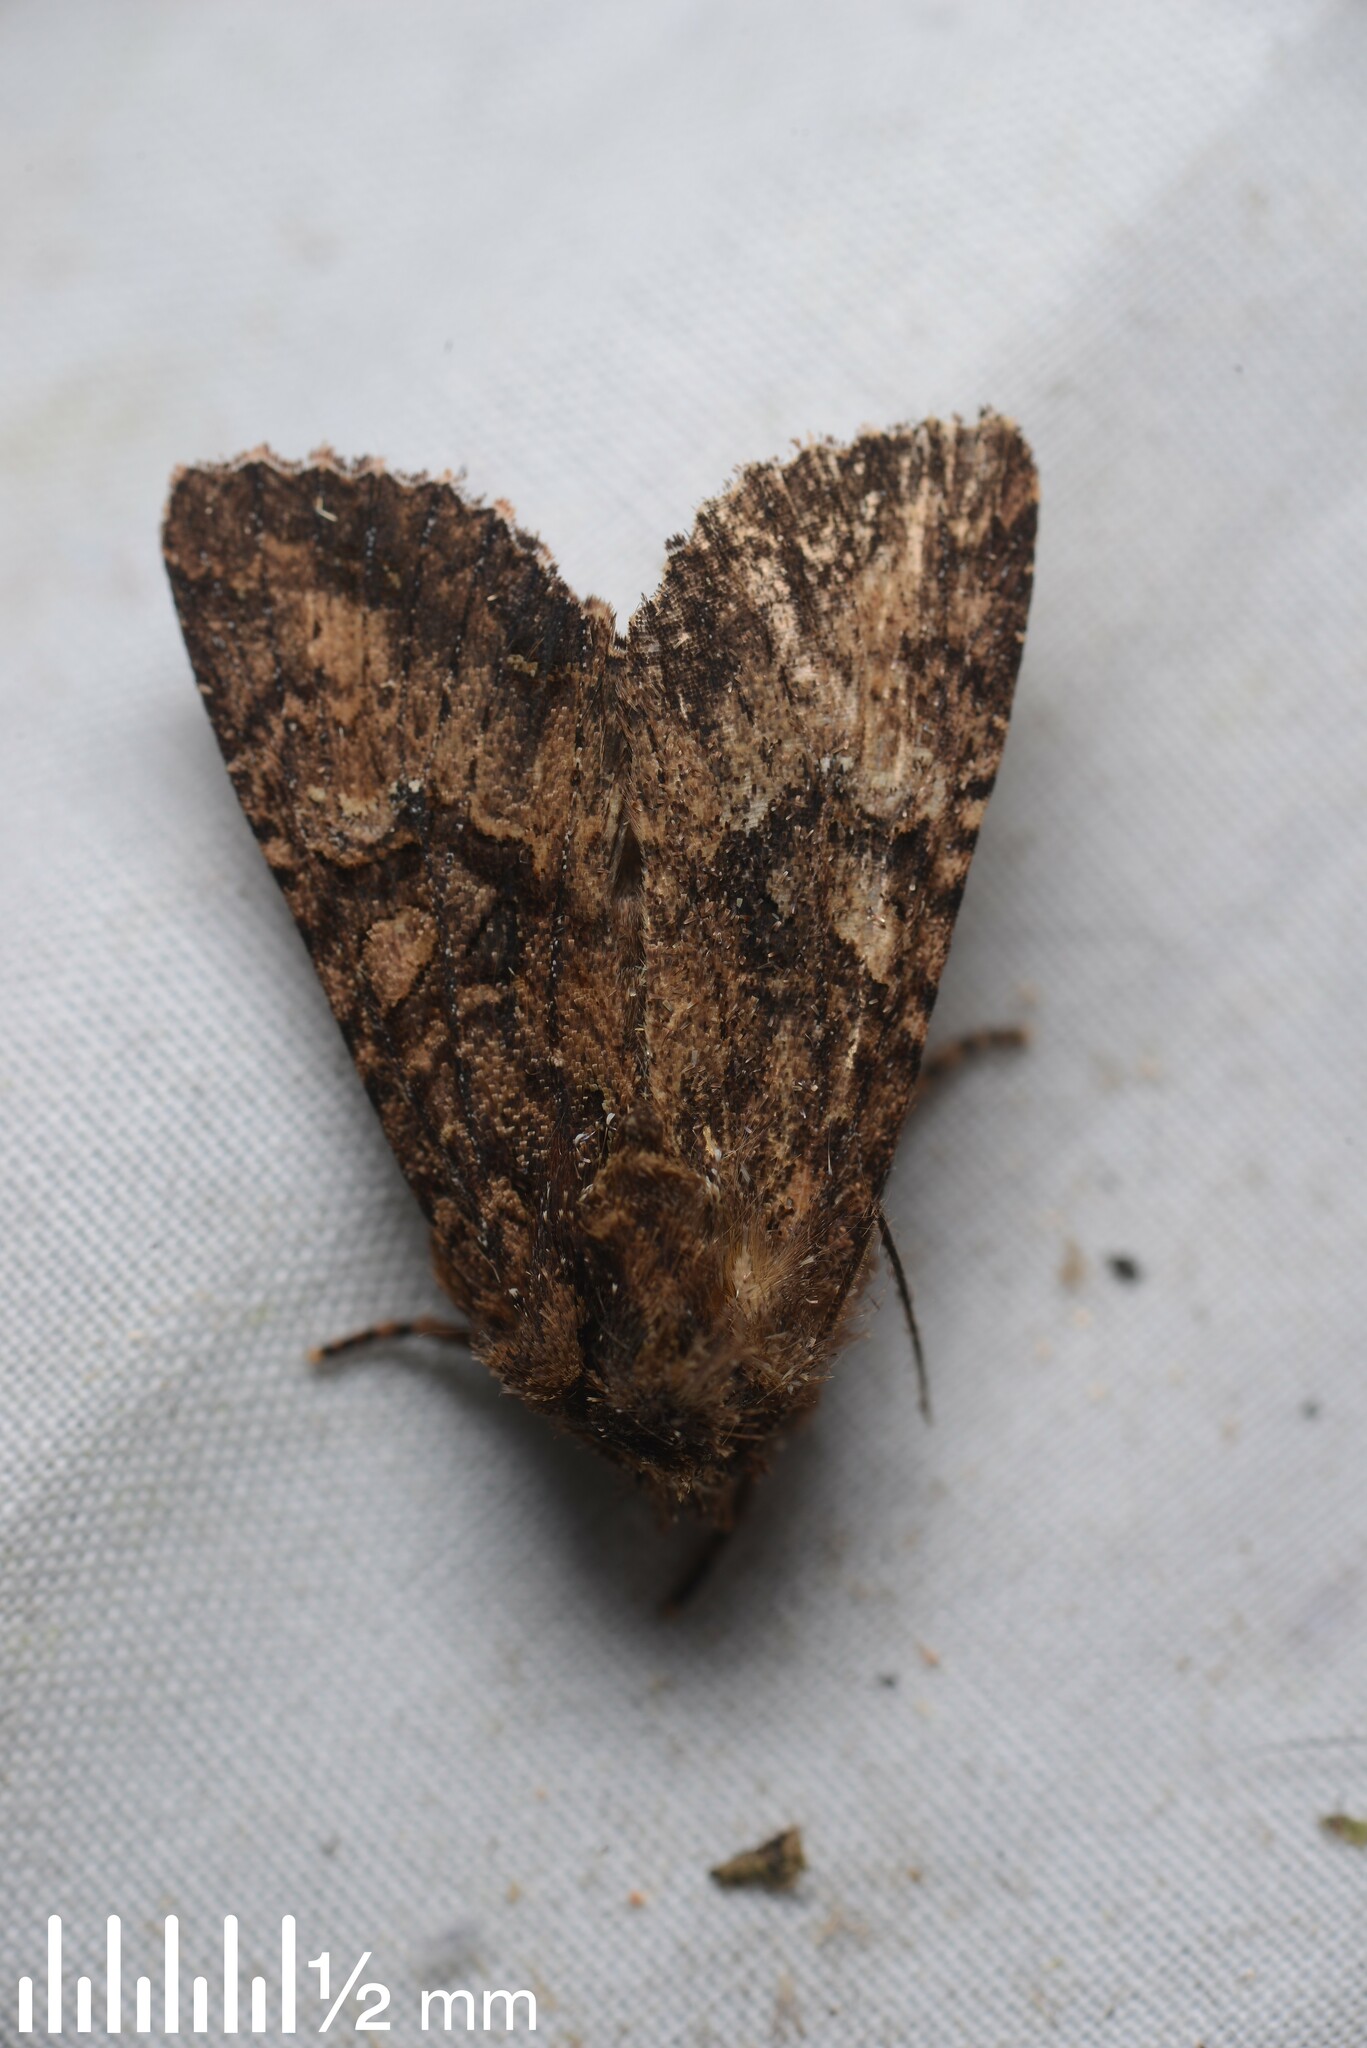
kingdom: Animalia
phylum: Arthropoda
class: Insecta
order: Lepidoptera
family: Noctuidae
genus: Meterana
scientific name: Meterana ochthistis
